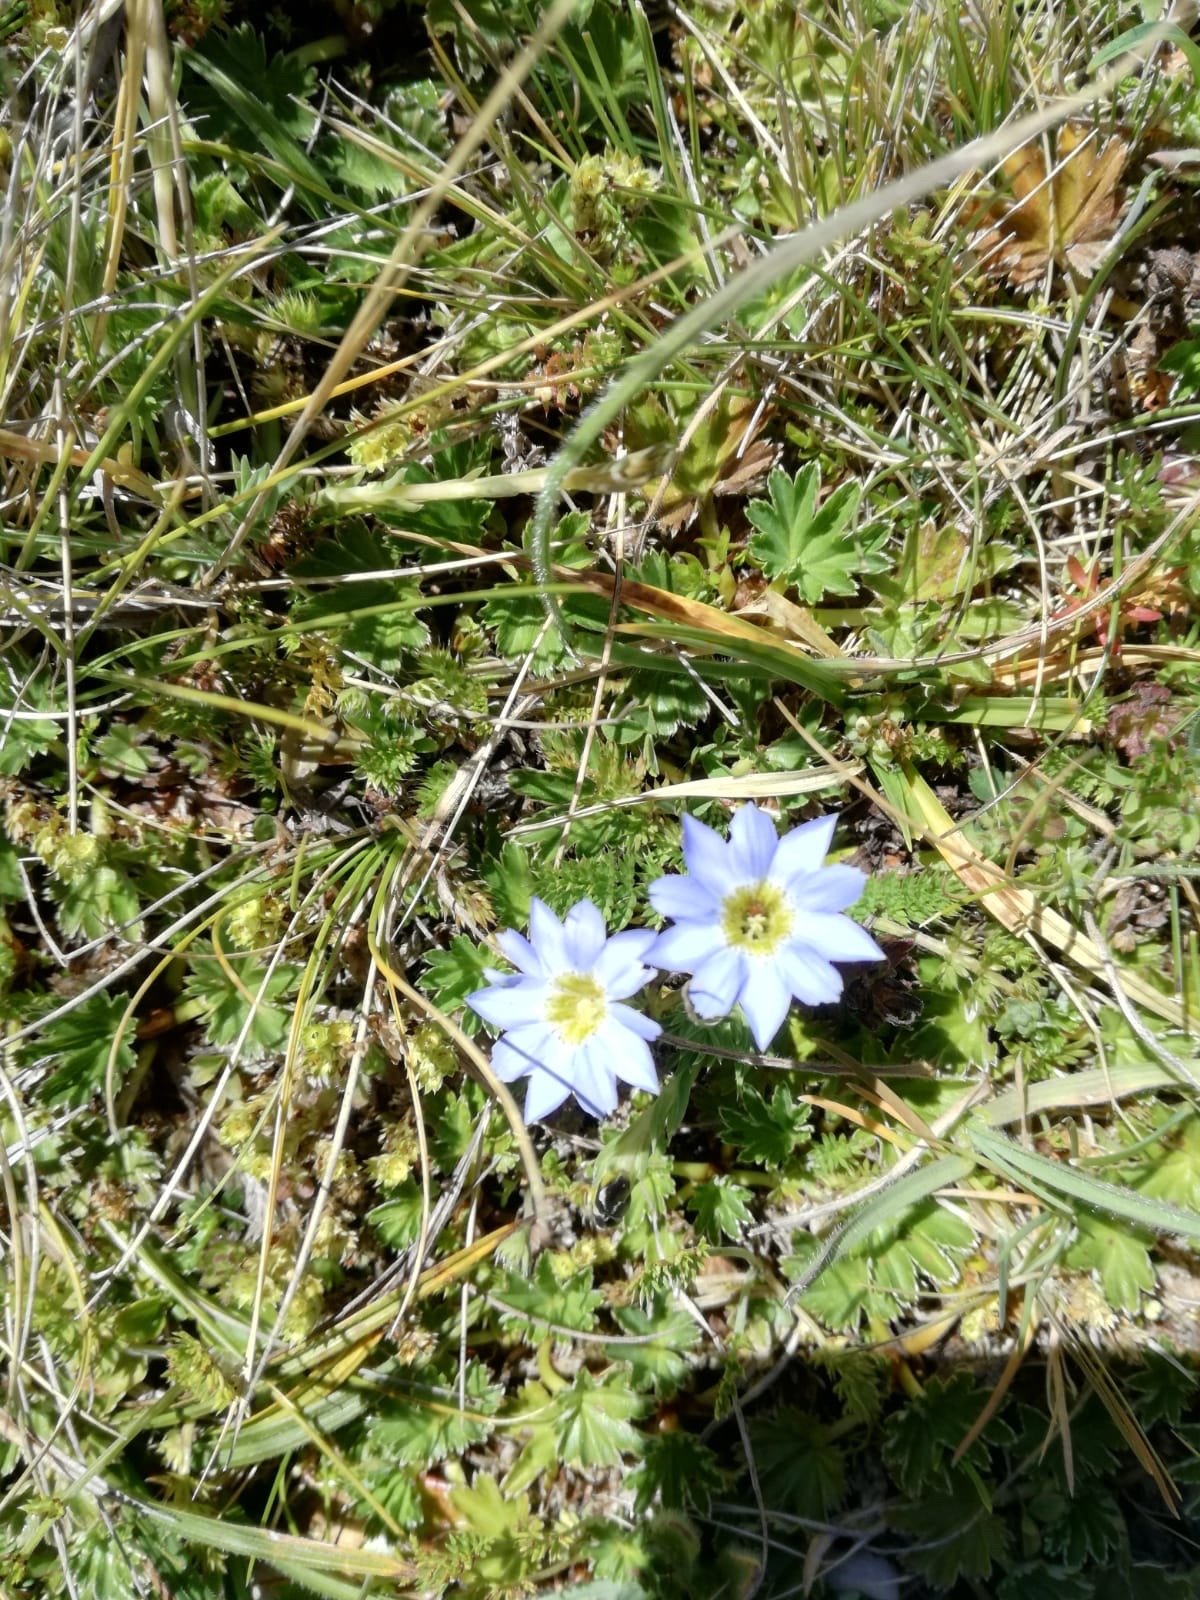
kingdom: Plantae
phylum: Tracheophyta
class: Magnoliopsida
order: Gentianales
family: Gentianaceae
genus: Gentiana
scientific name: Gentiana sedifolia
